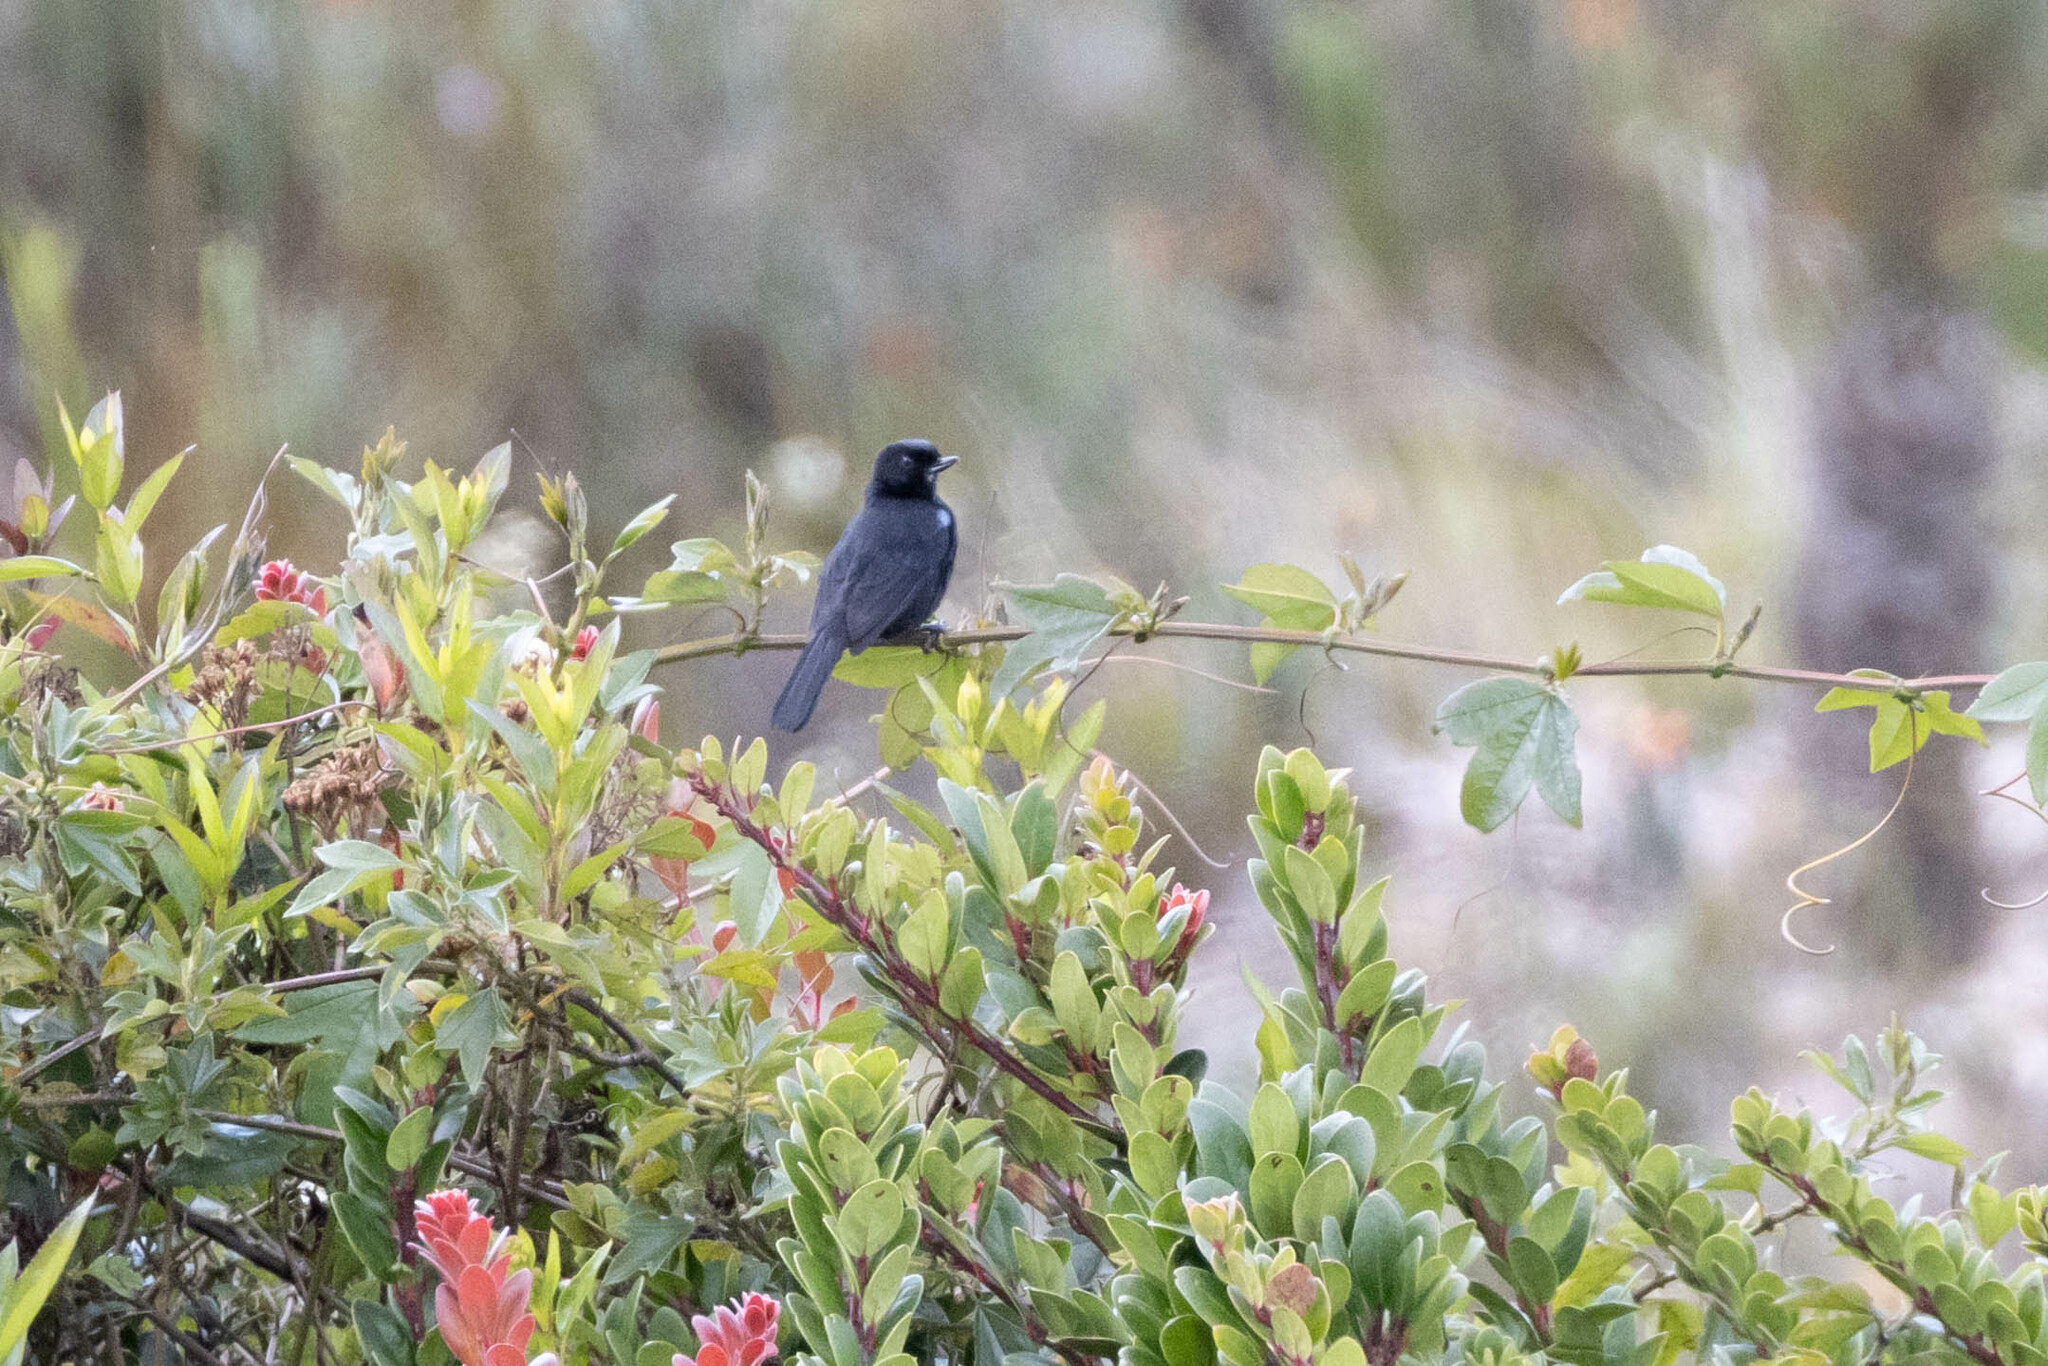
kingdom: Animalia
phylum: Chordata
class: Aves
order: Passeriformes
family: Thraupidae
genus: Diglossa
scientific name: Diglossa lafresnayii
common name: Glossy flowerpiercer
